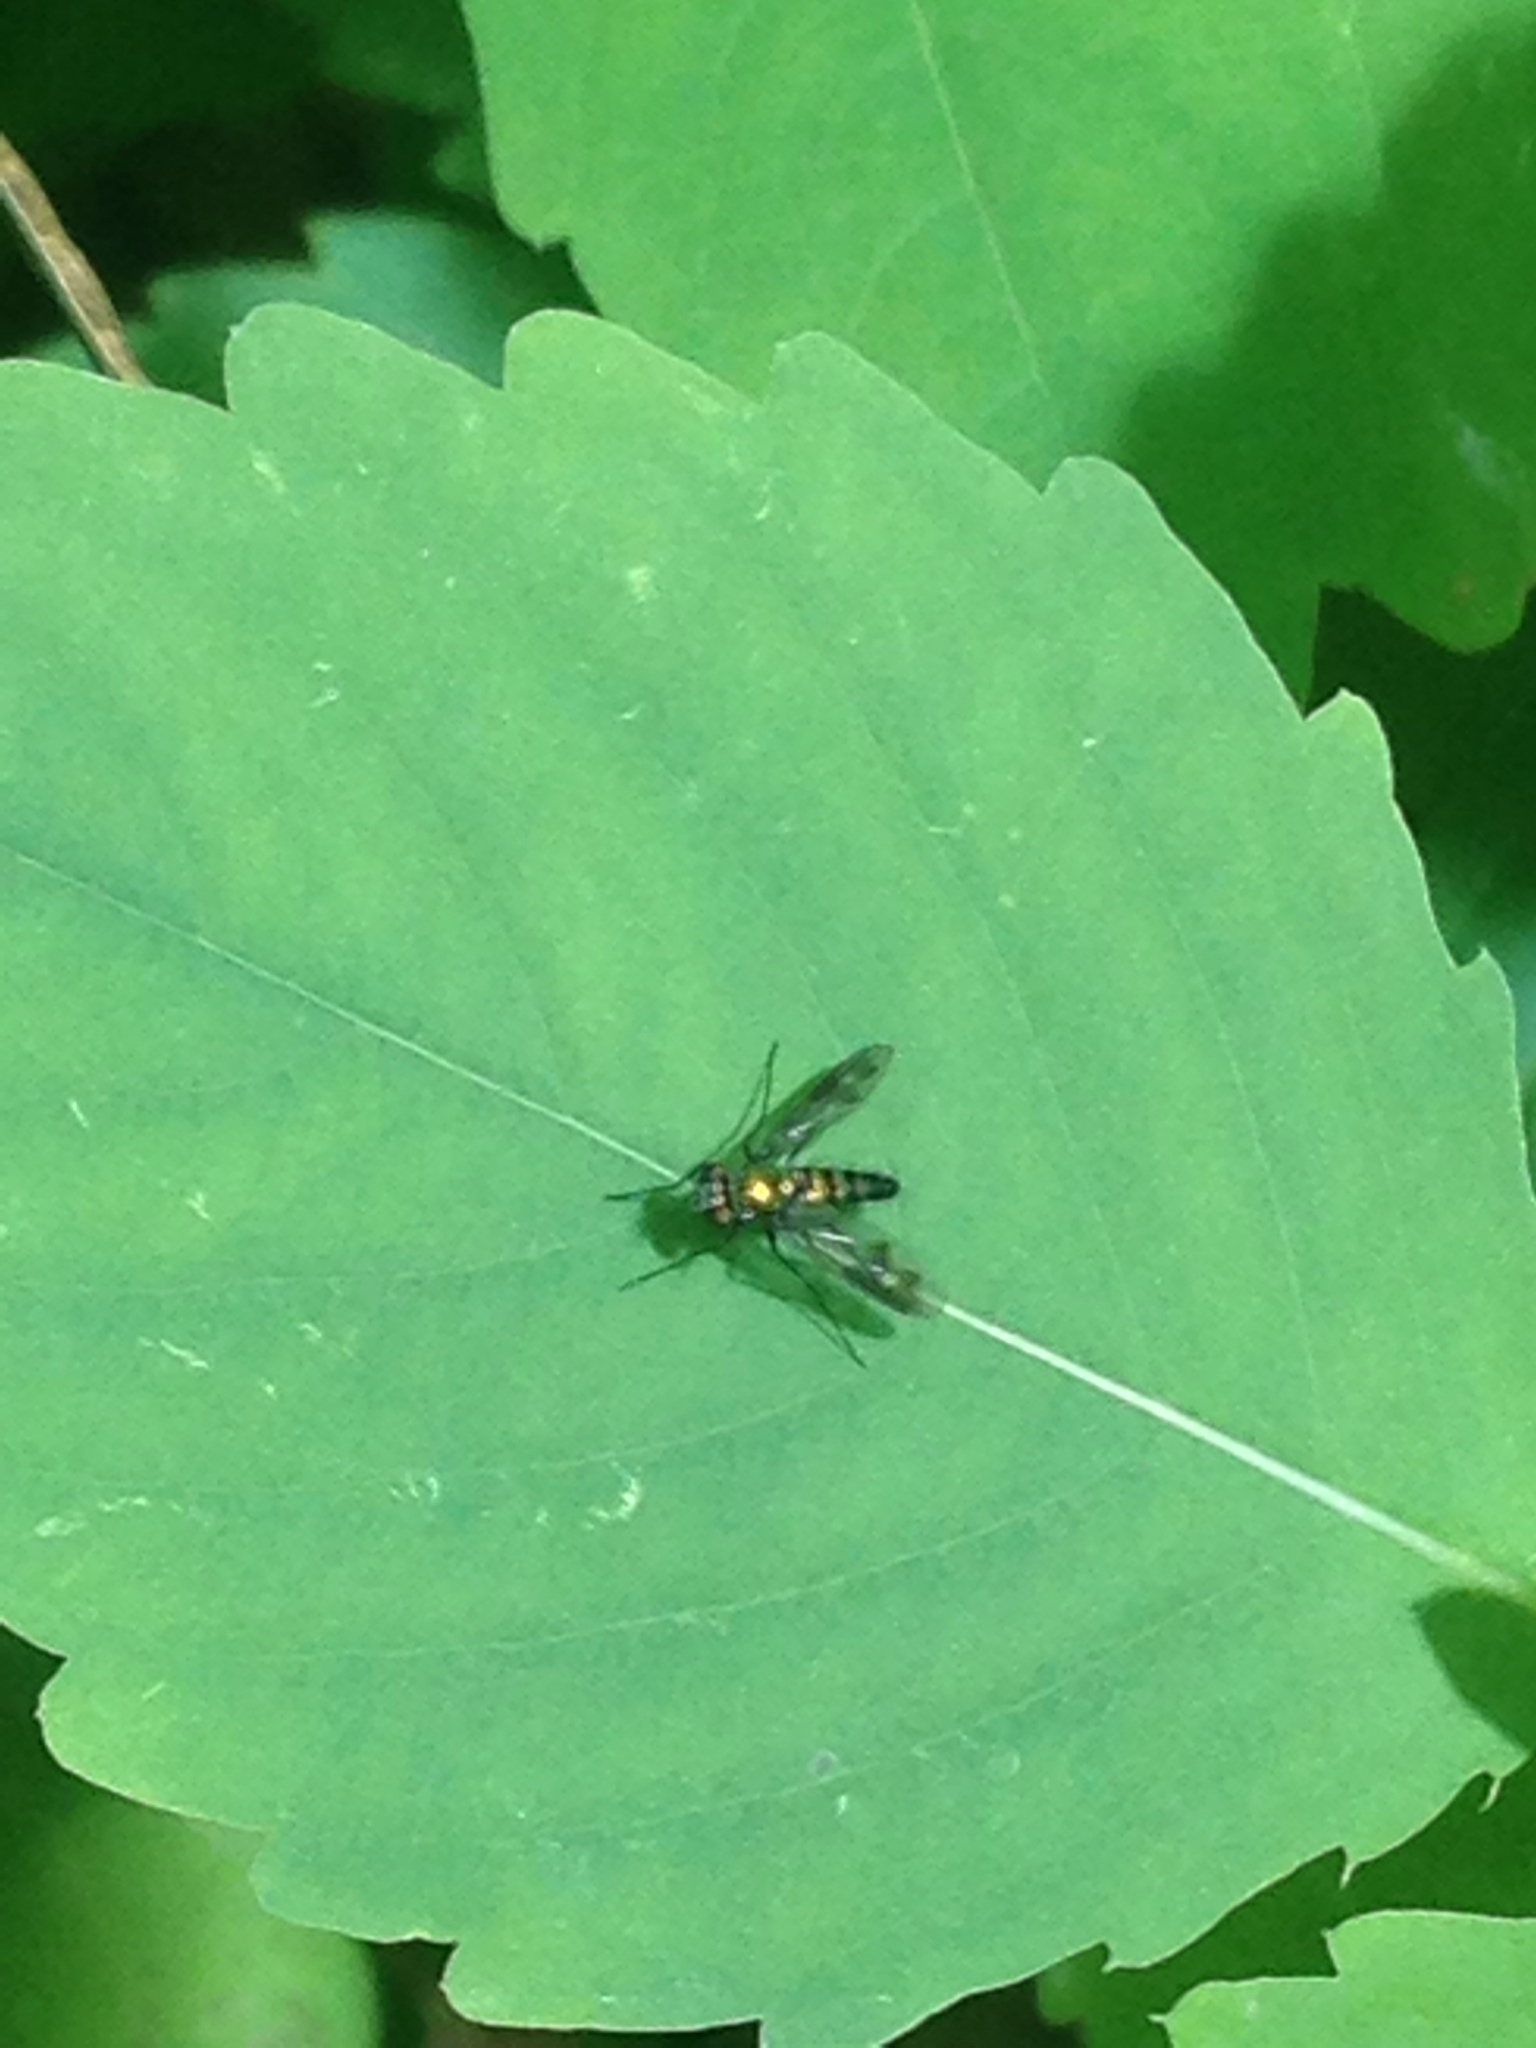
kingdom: Animalia
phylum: Arthropoda
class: Insecta
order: Diptera
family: Dolichopodidae
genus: Condylostylus
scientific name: Condylostylus patibulatus
